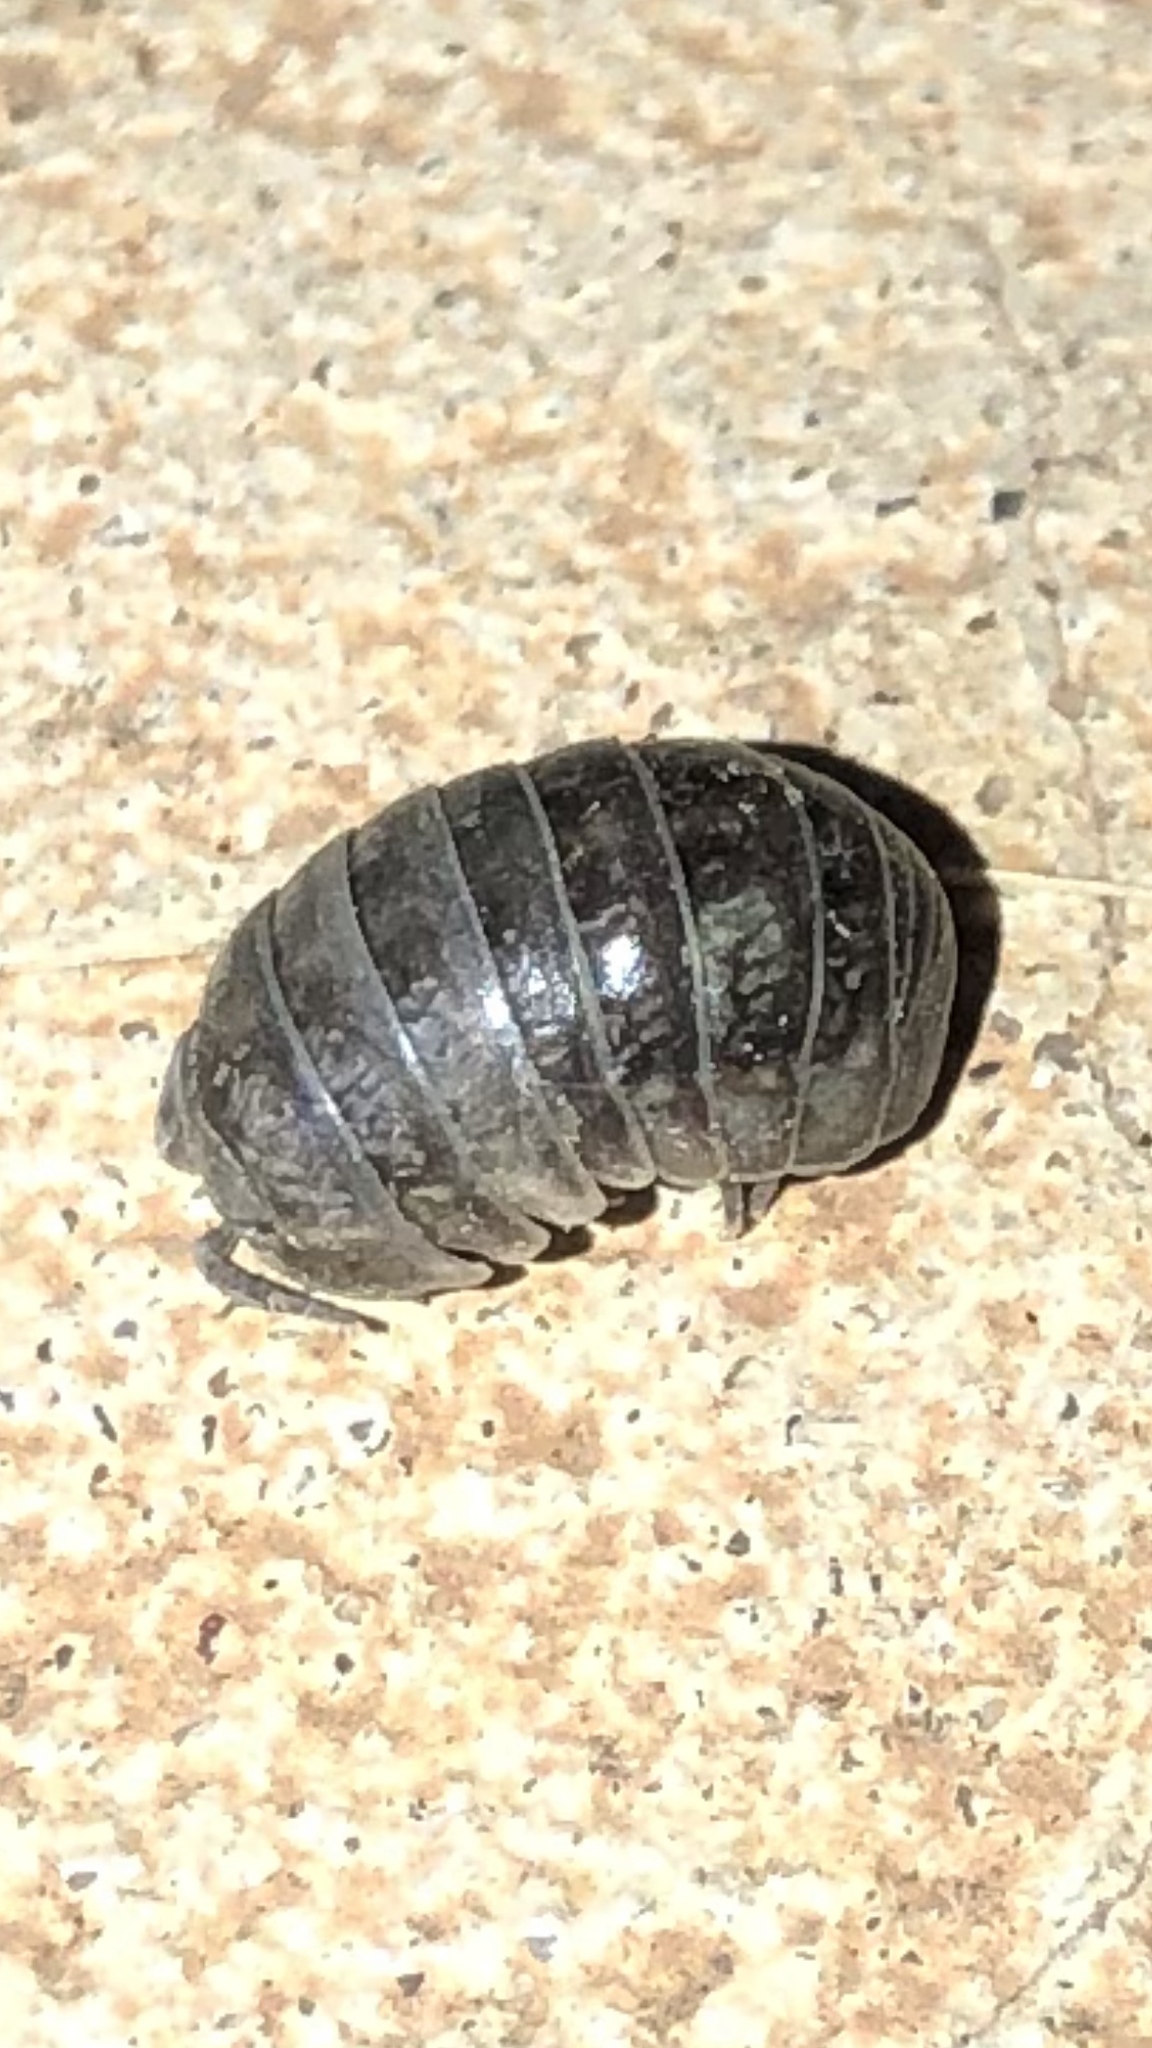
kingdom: Animalia
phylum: Arthropoda
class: Malacostraca
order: Isopoda
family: Armadillidiidae
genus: Armadillidium
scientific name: Armadillidium vulgare
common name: Common pill woodlouse
